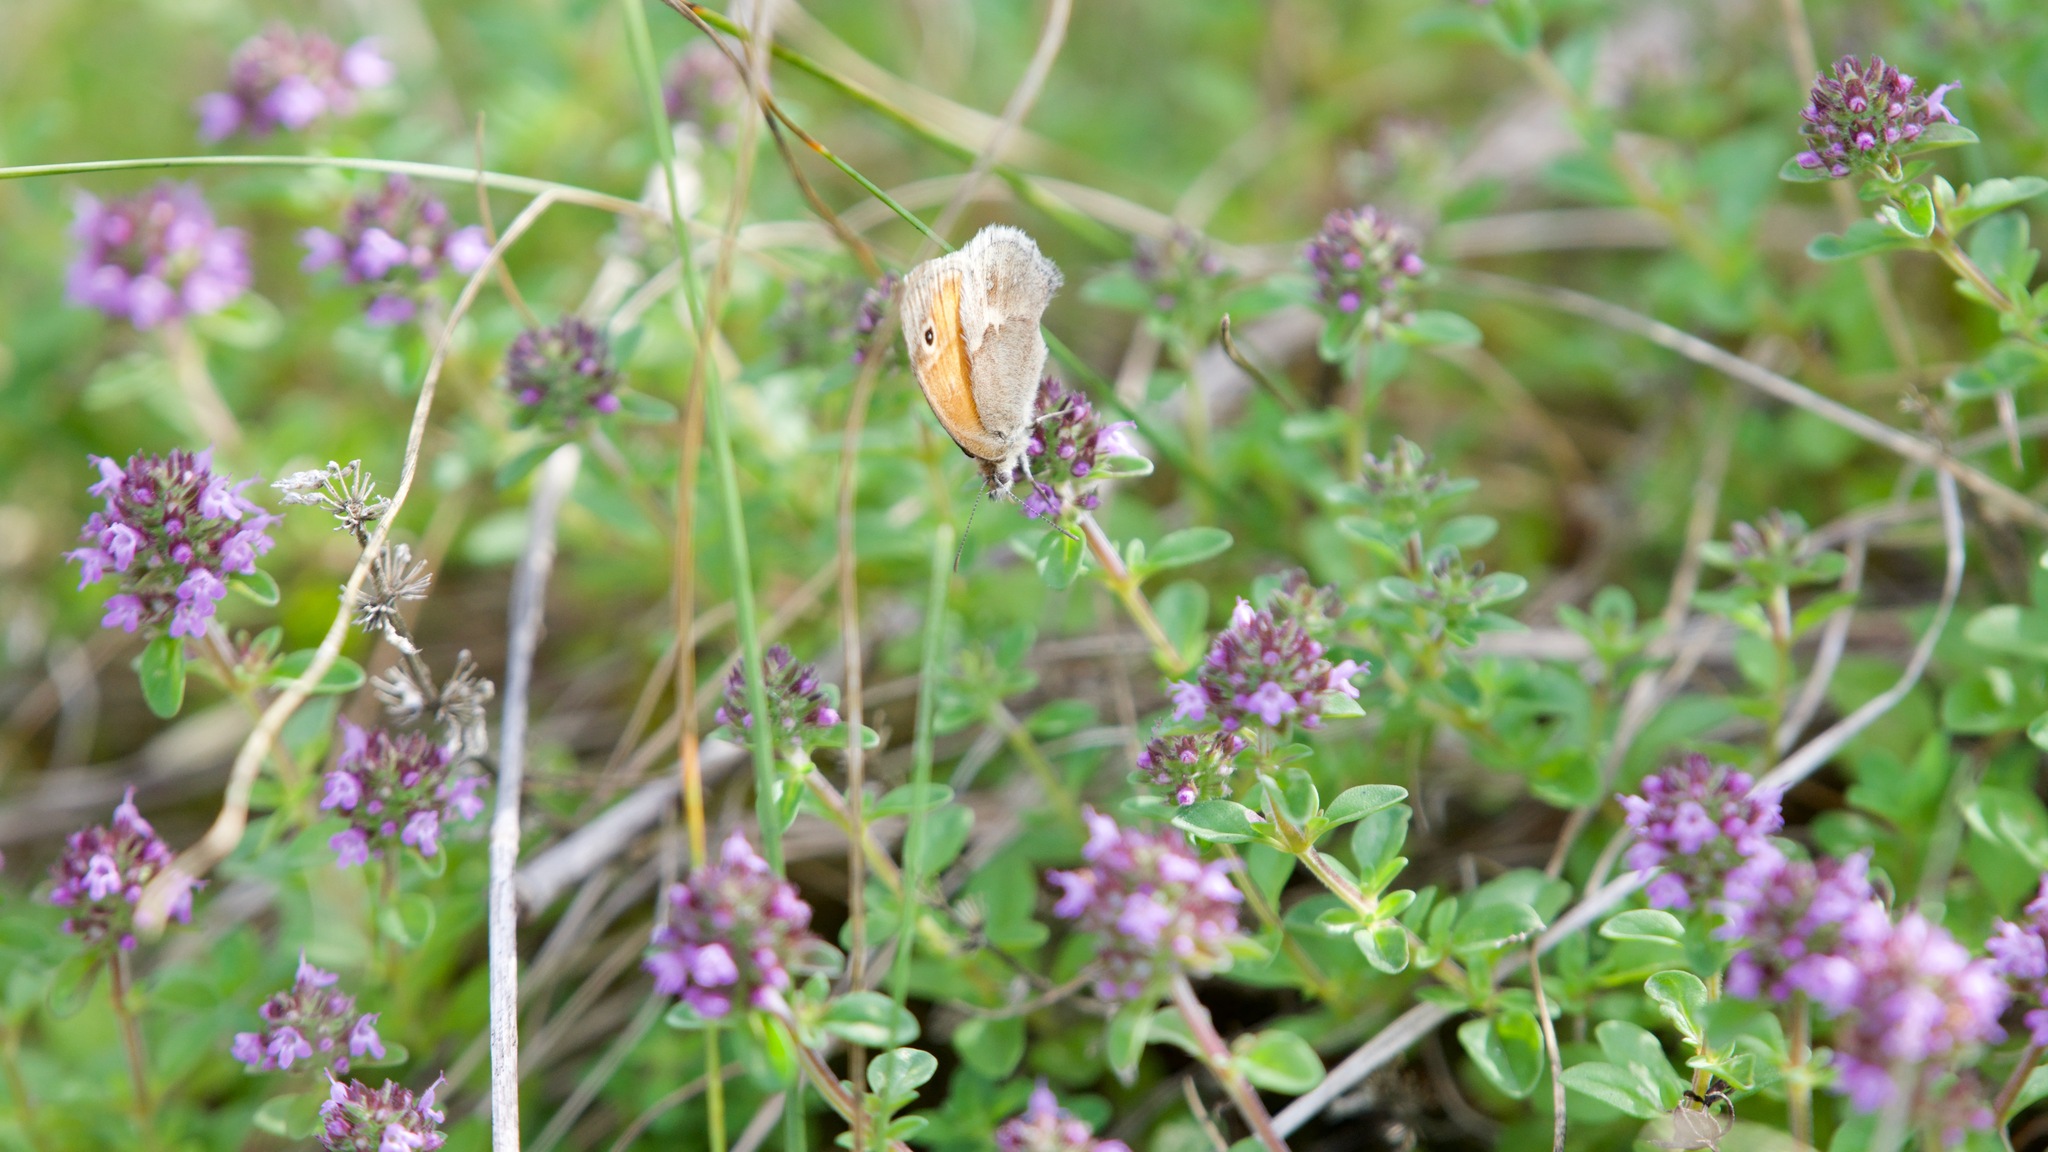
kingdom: Animalia
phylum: Arthropoda
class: Insecta
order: Lepidoptera
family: Nymphalidae
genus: Coenonympha
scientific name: Coenonympha pamphilus
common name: Small heath
